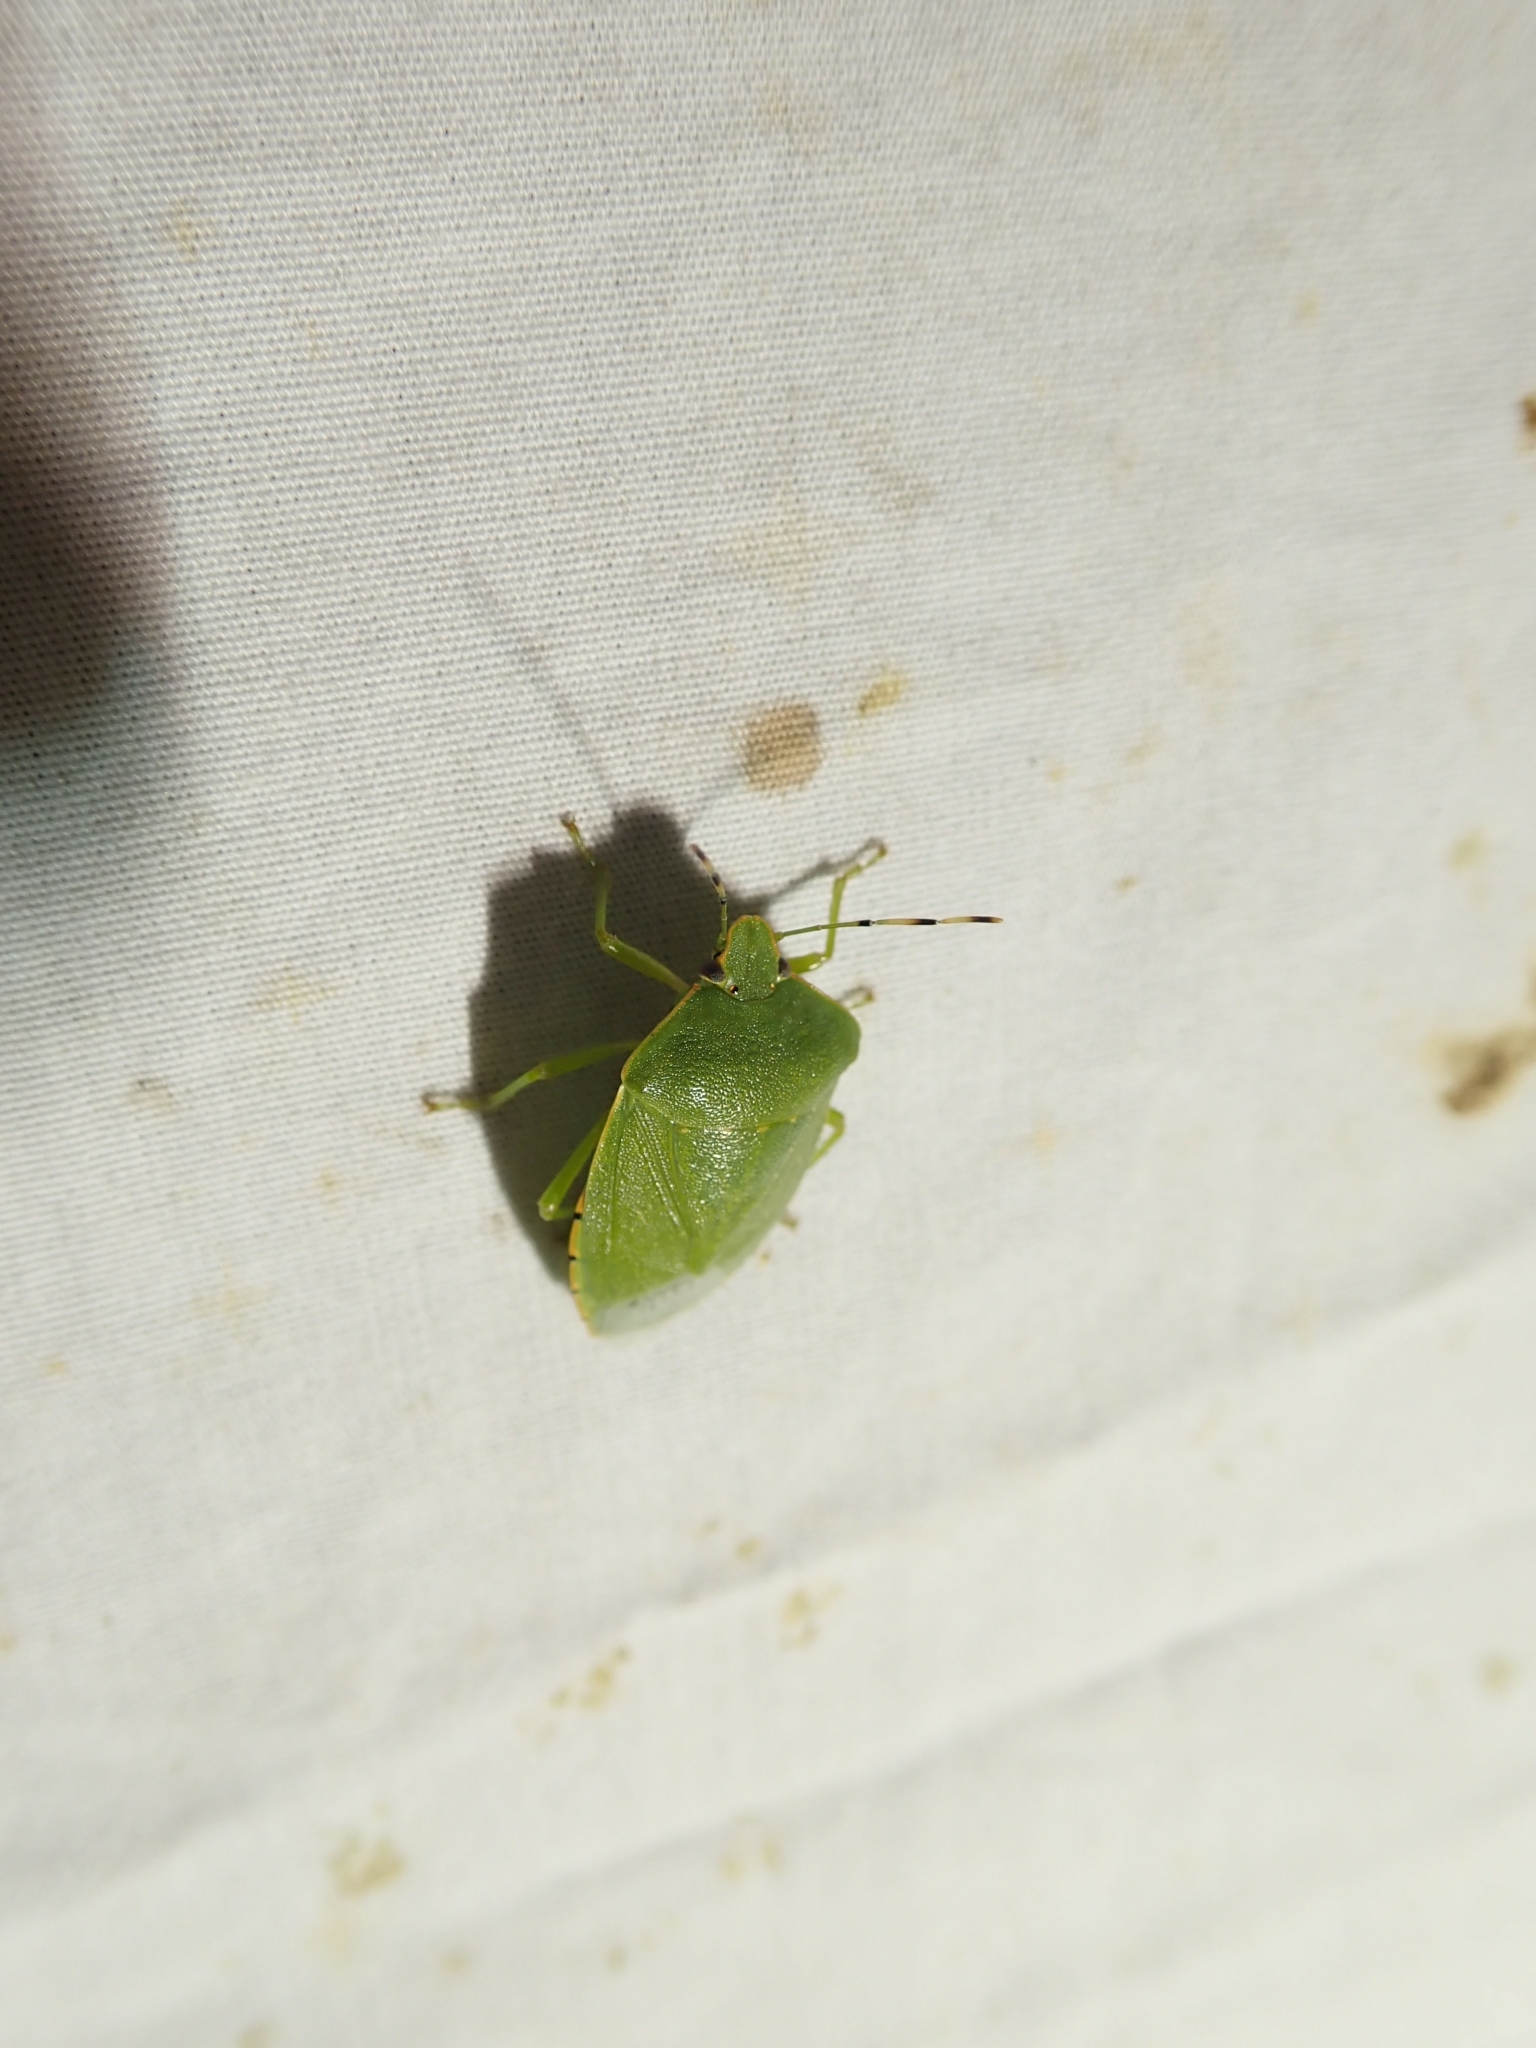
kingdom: Animalia
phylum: Arthropoda
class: Insecta
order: Hemiptera
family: Pentatomidae
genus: Chinavia
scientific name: Chinavia hilaris
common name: Green stink bug
